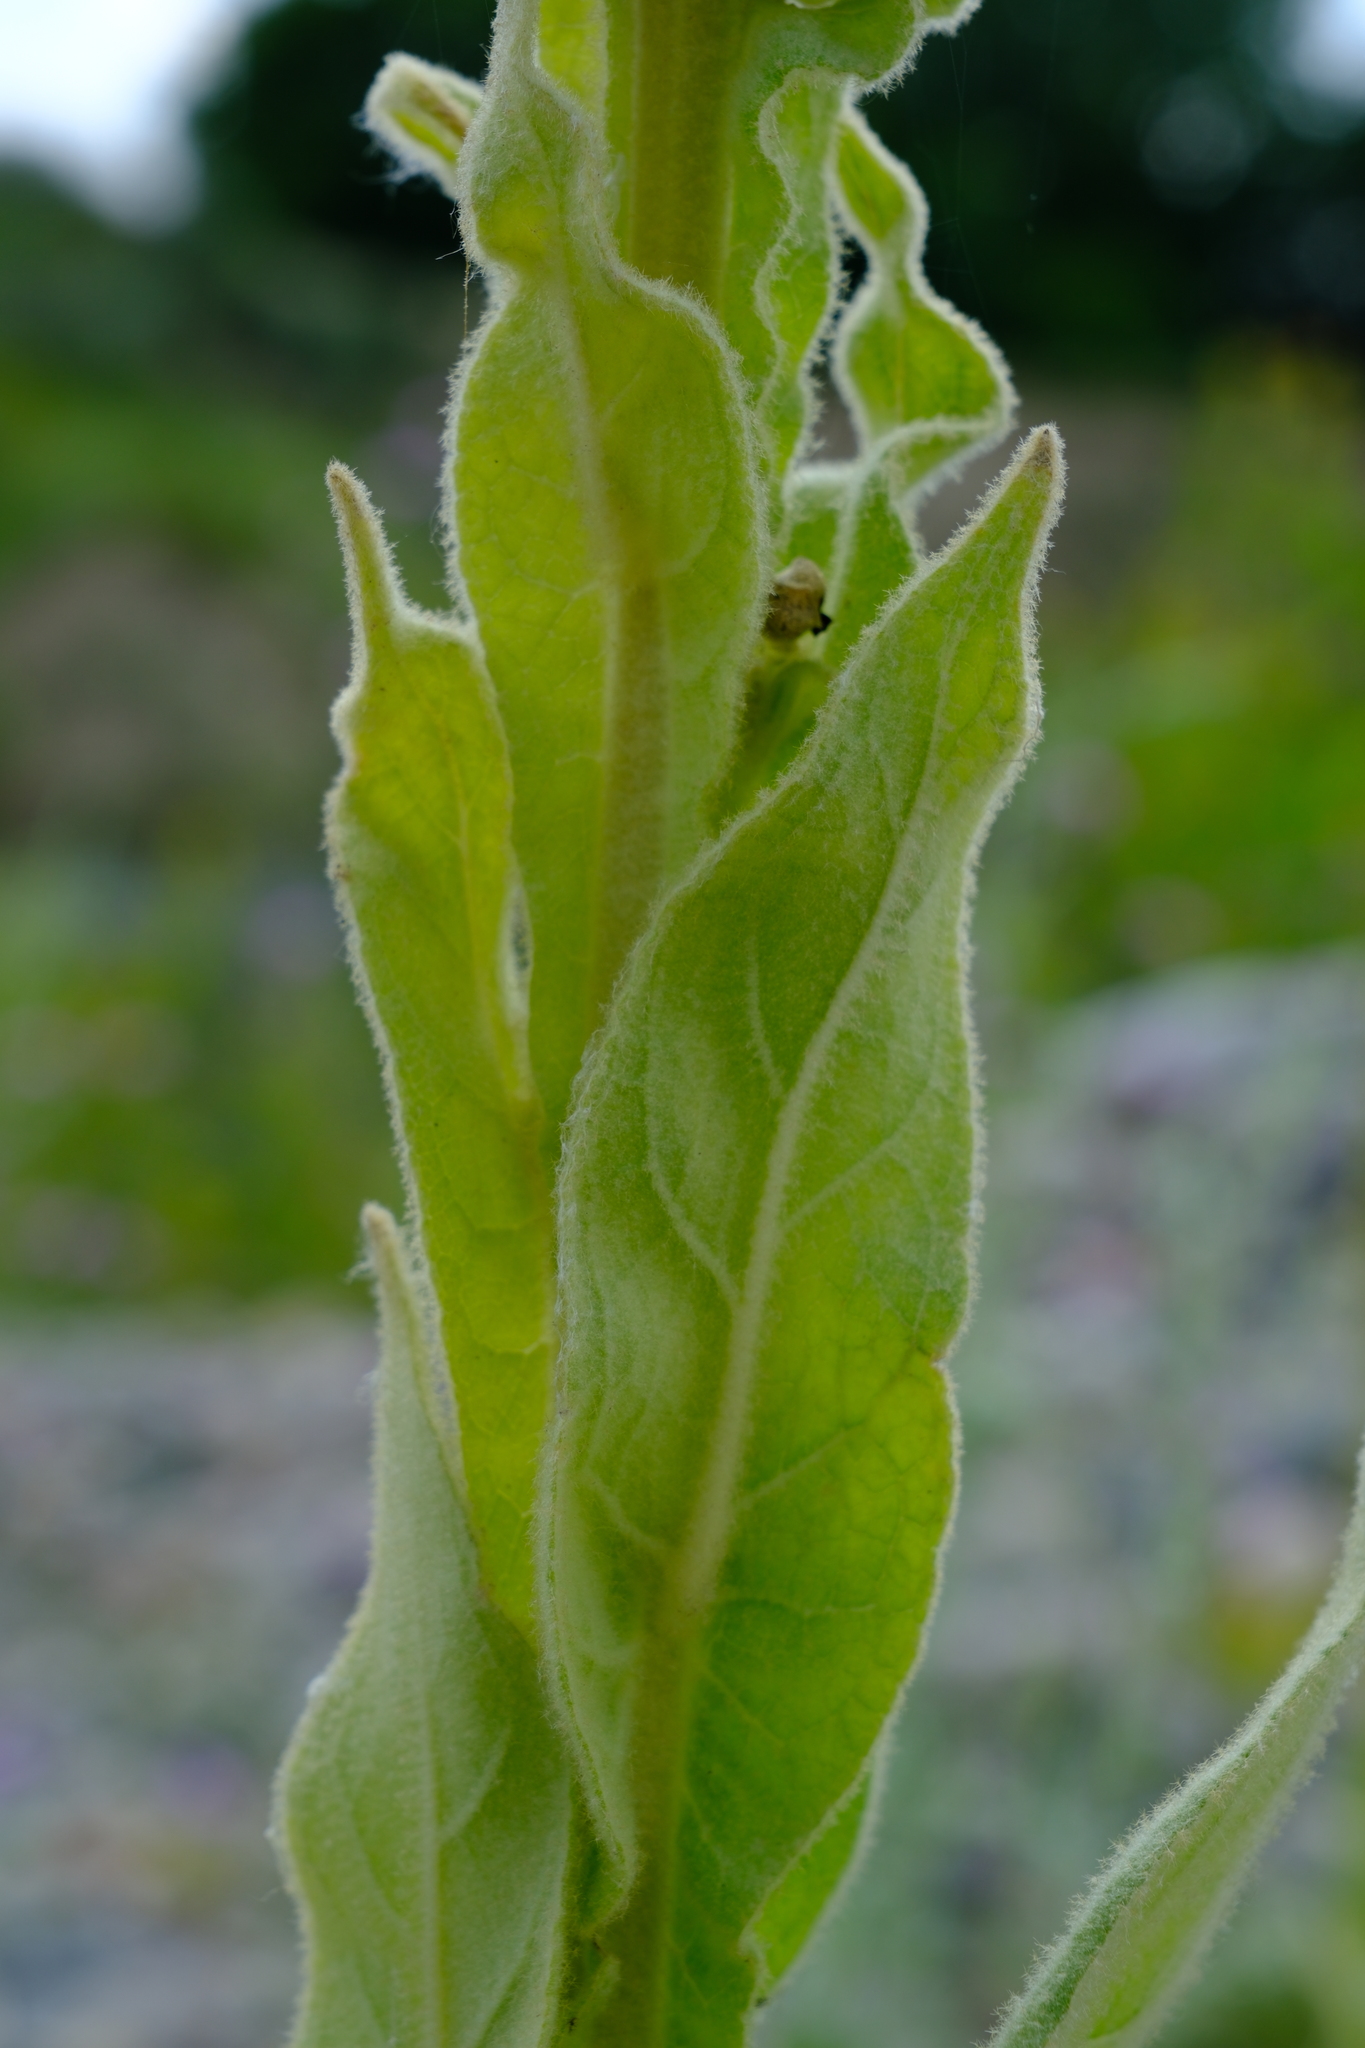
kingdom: Plantae
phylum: Tracheophyta
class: Magnoliopsida
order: Lamiales
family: Scrophulariaceae
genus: Verbascum
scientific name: Verbascum thapsus
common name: Common mullein
